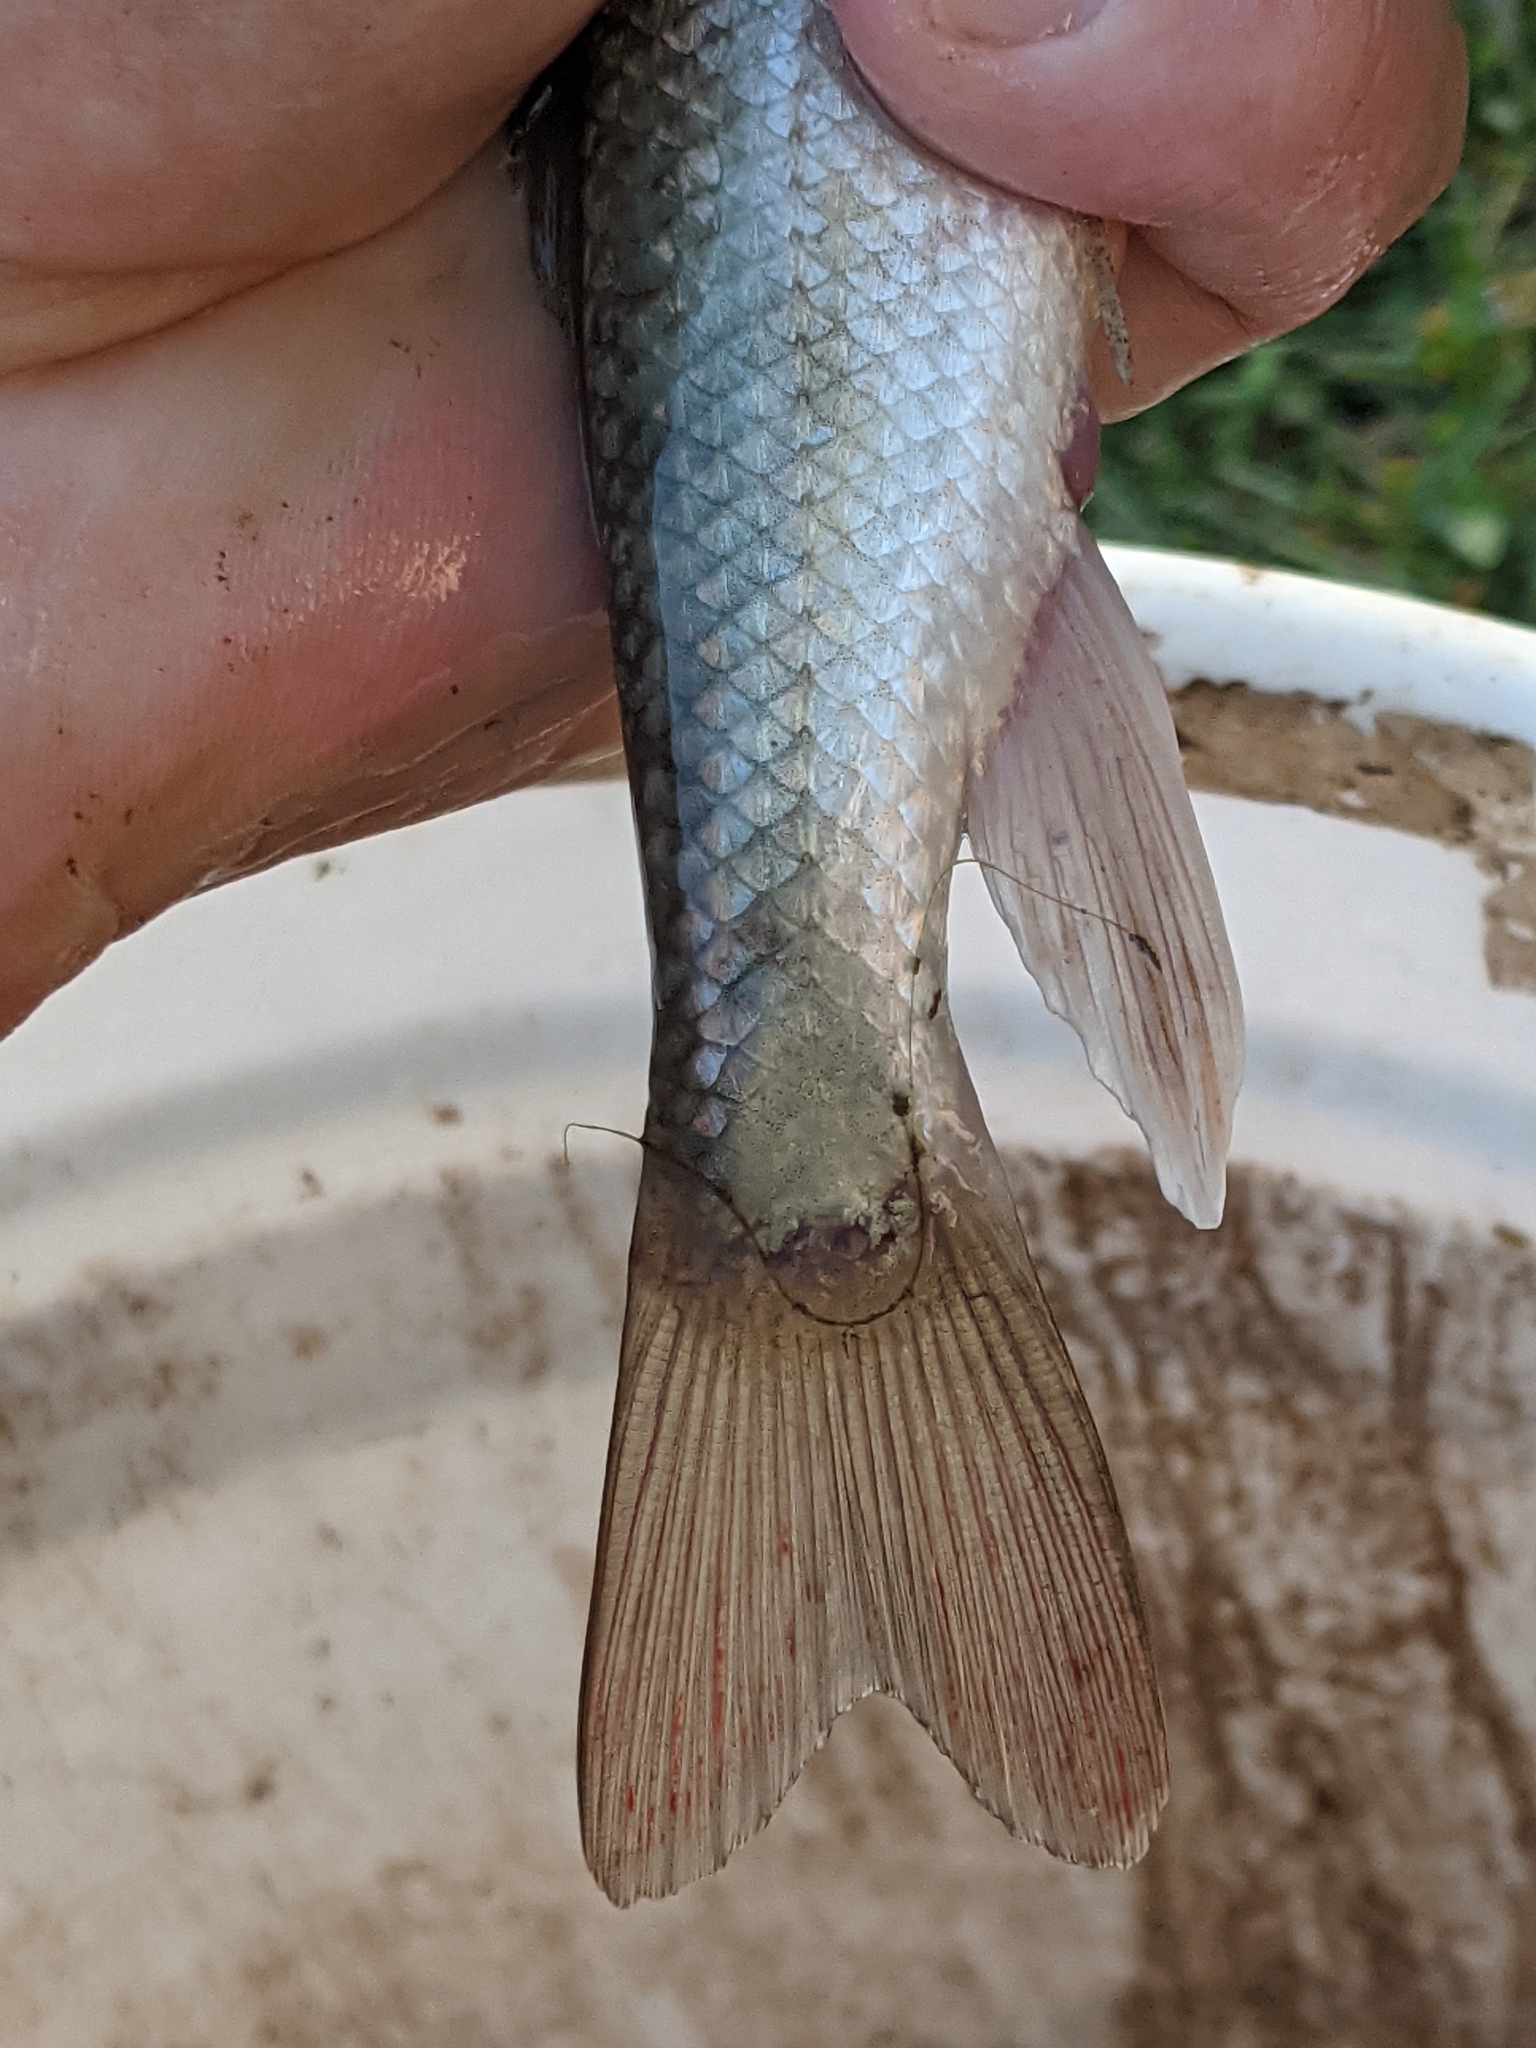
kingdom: Animalia
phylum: Chordata
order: Cypriniformes
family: Catostomidae
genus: Catostomus
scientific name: Catostomus commersonii
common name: White sucker
